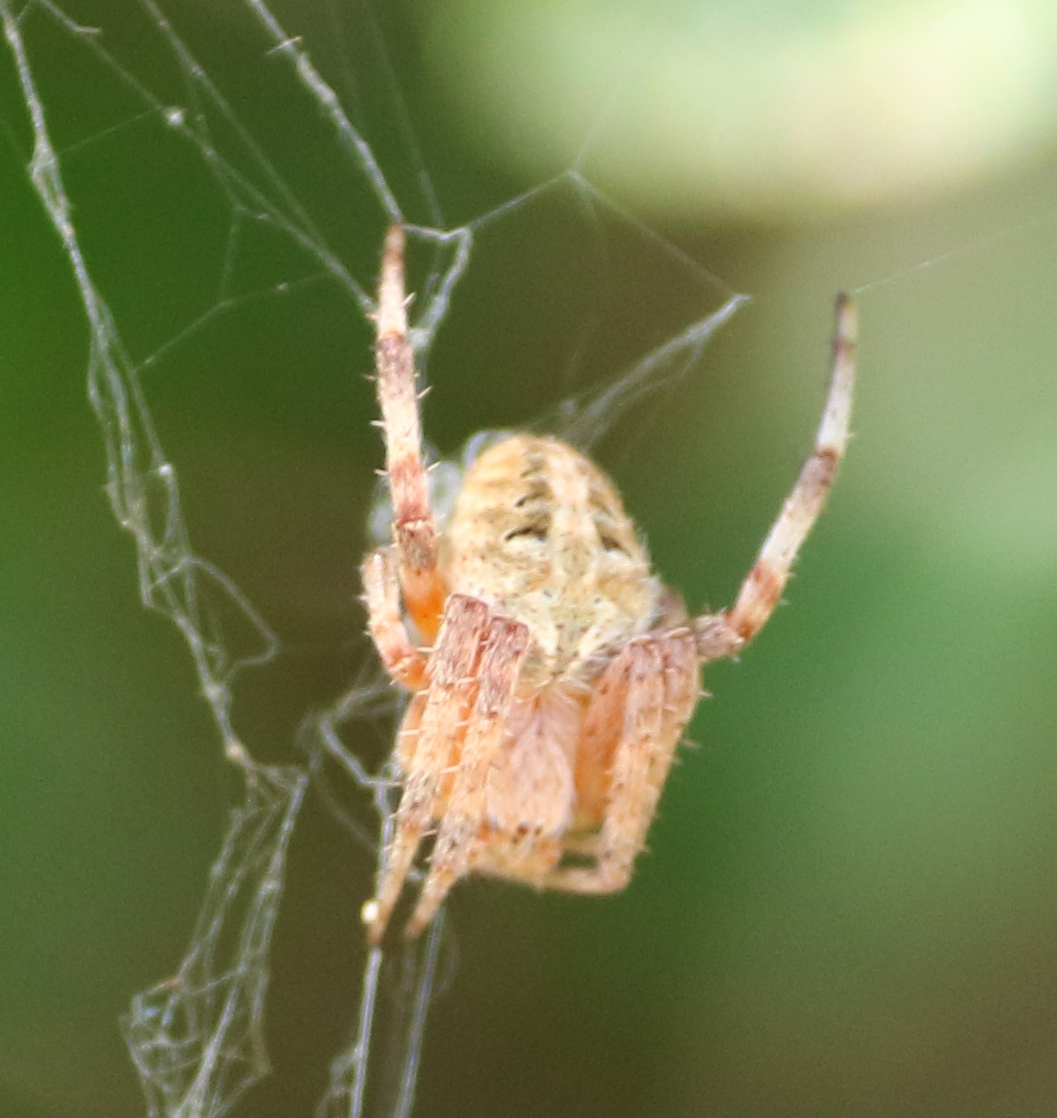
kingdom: Animalia
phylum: Arthropoda
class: Arachnida
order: Araneae
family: Araneidae
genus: Neoscona
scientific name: Neoscona arabesca
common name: Orb weavers
